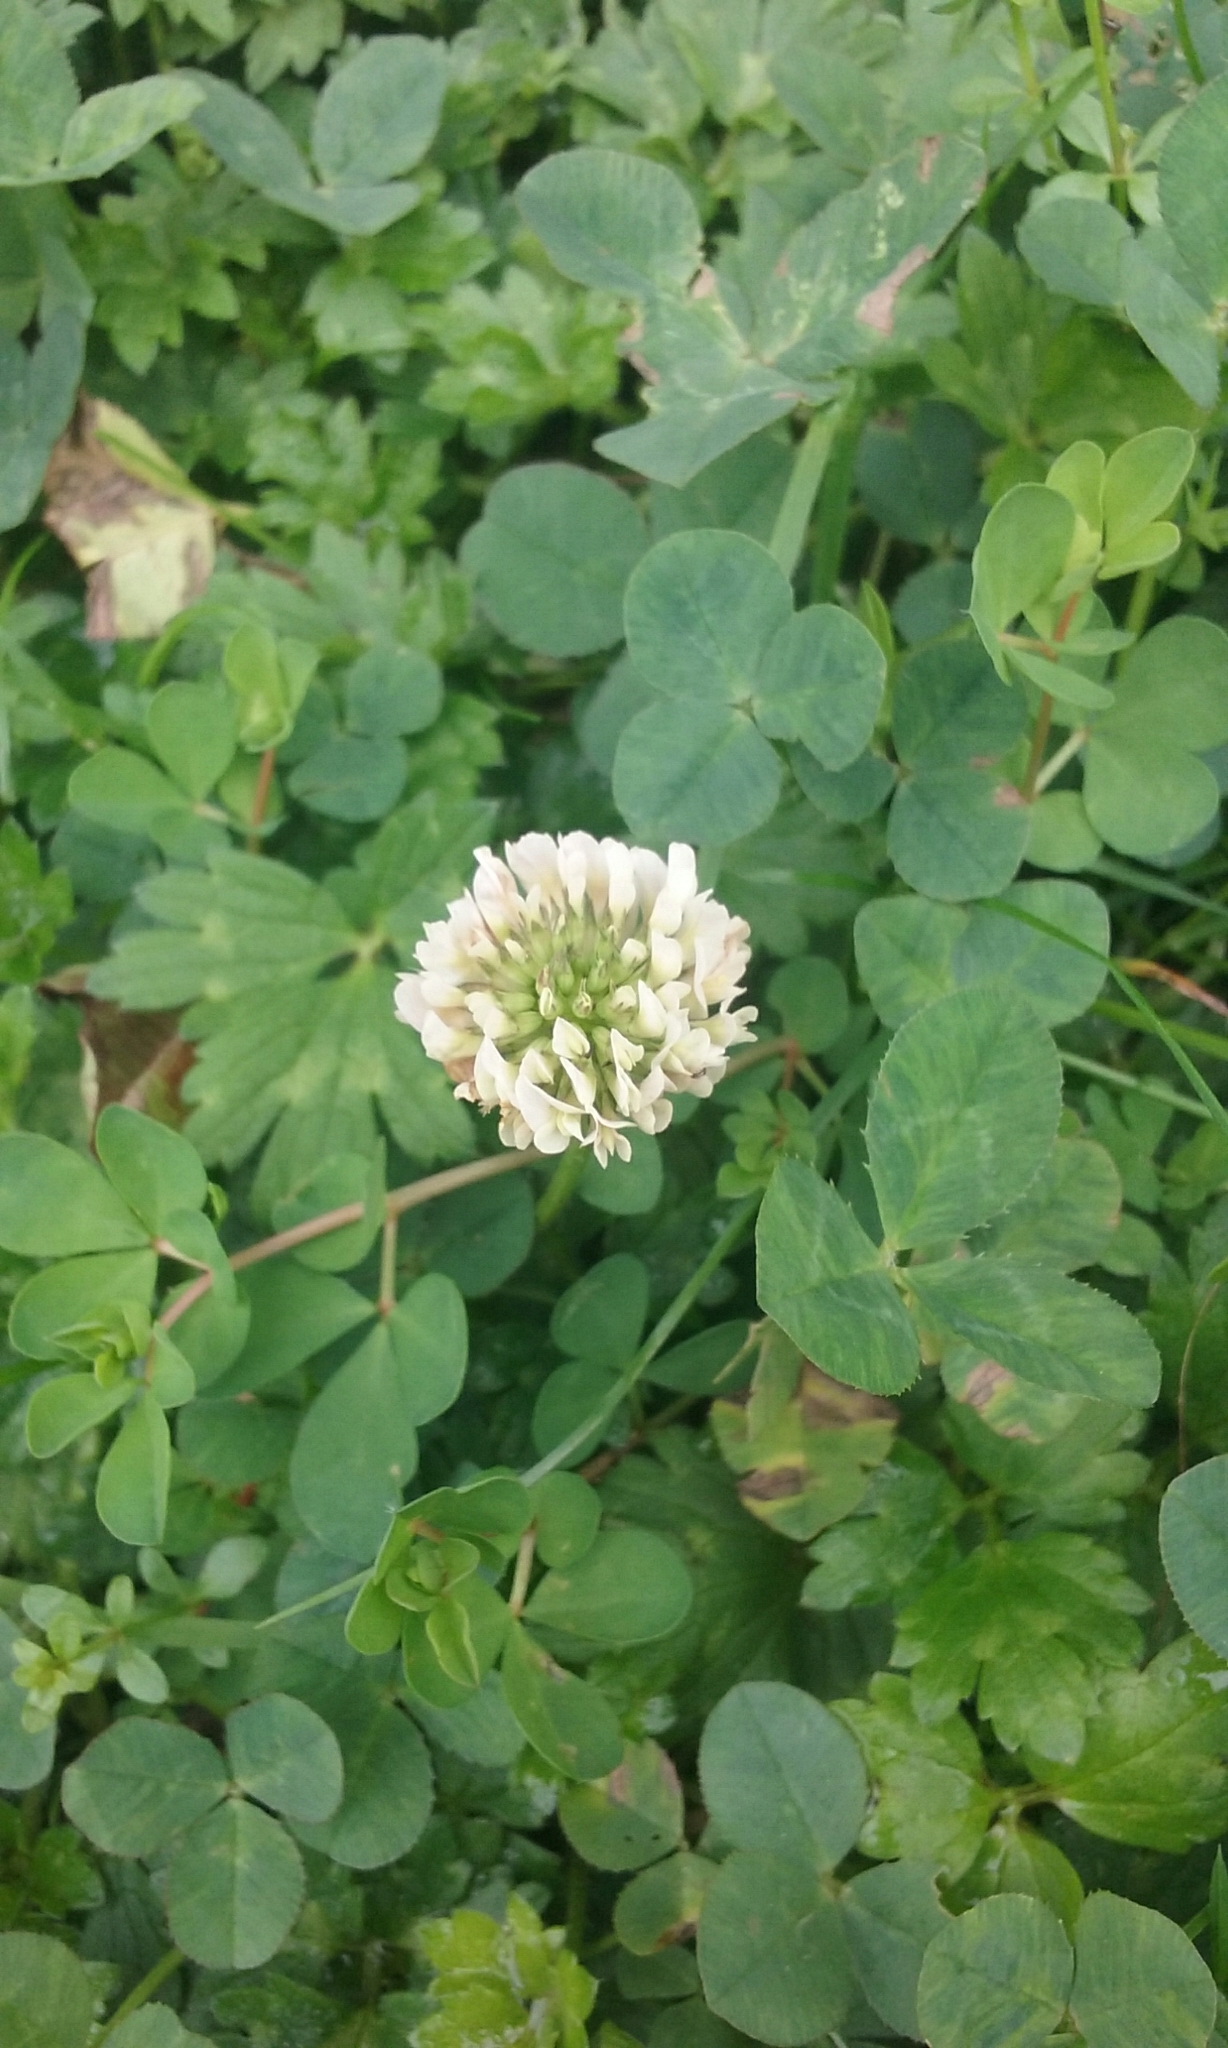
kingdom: Plantae
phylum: Tracheophyta
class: Magnoliopsida
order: Fabales
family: Fabaceae
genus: Trifolium
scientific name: Trifolium repens
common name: White clover
